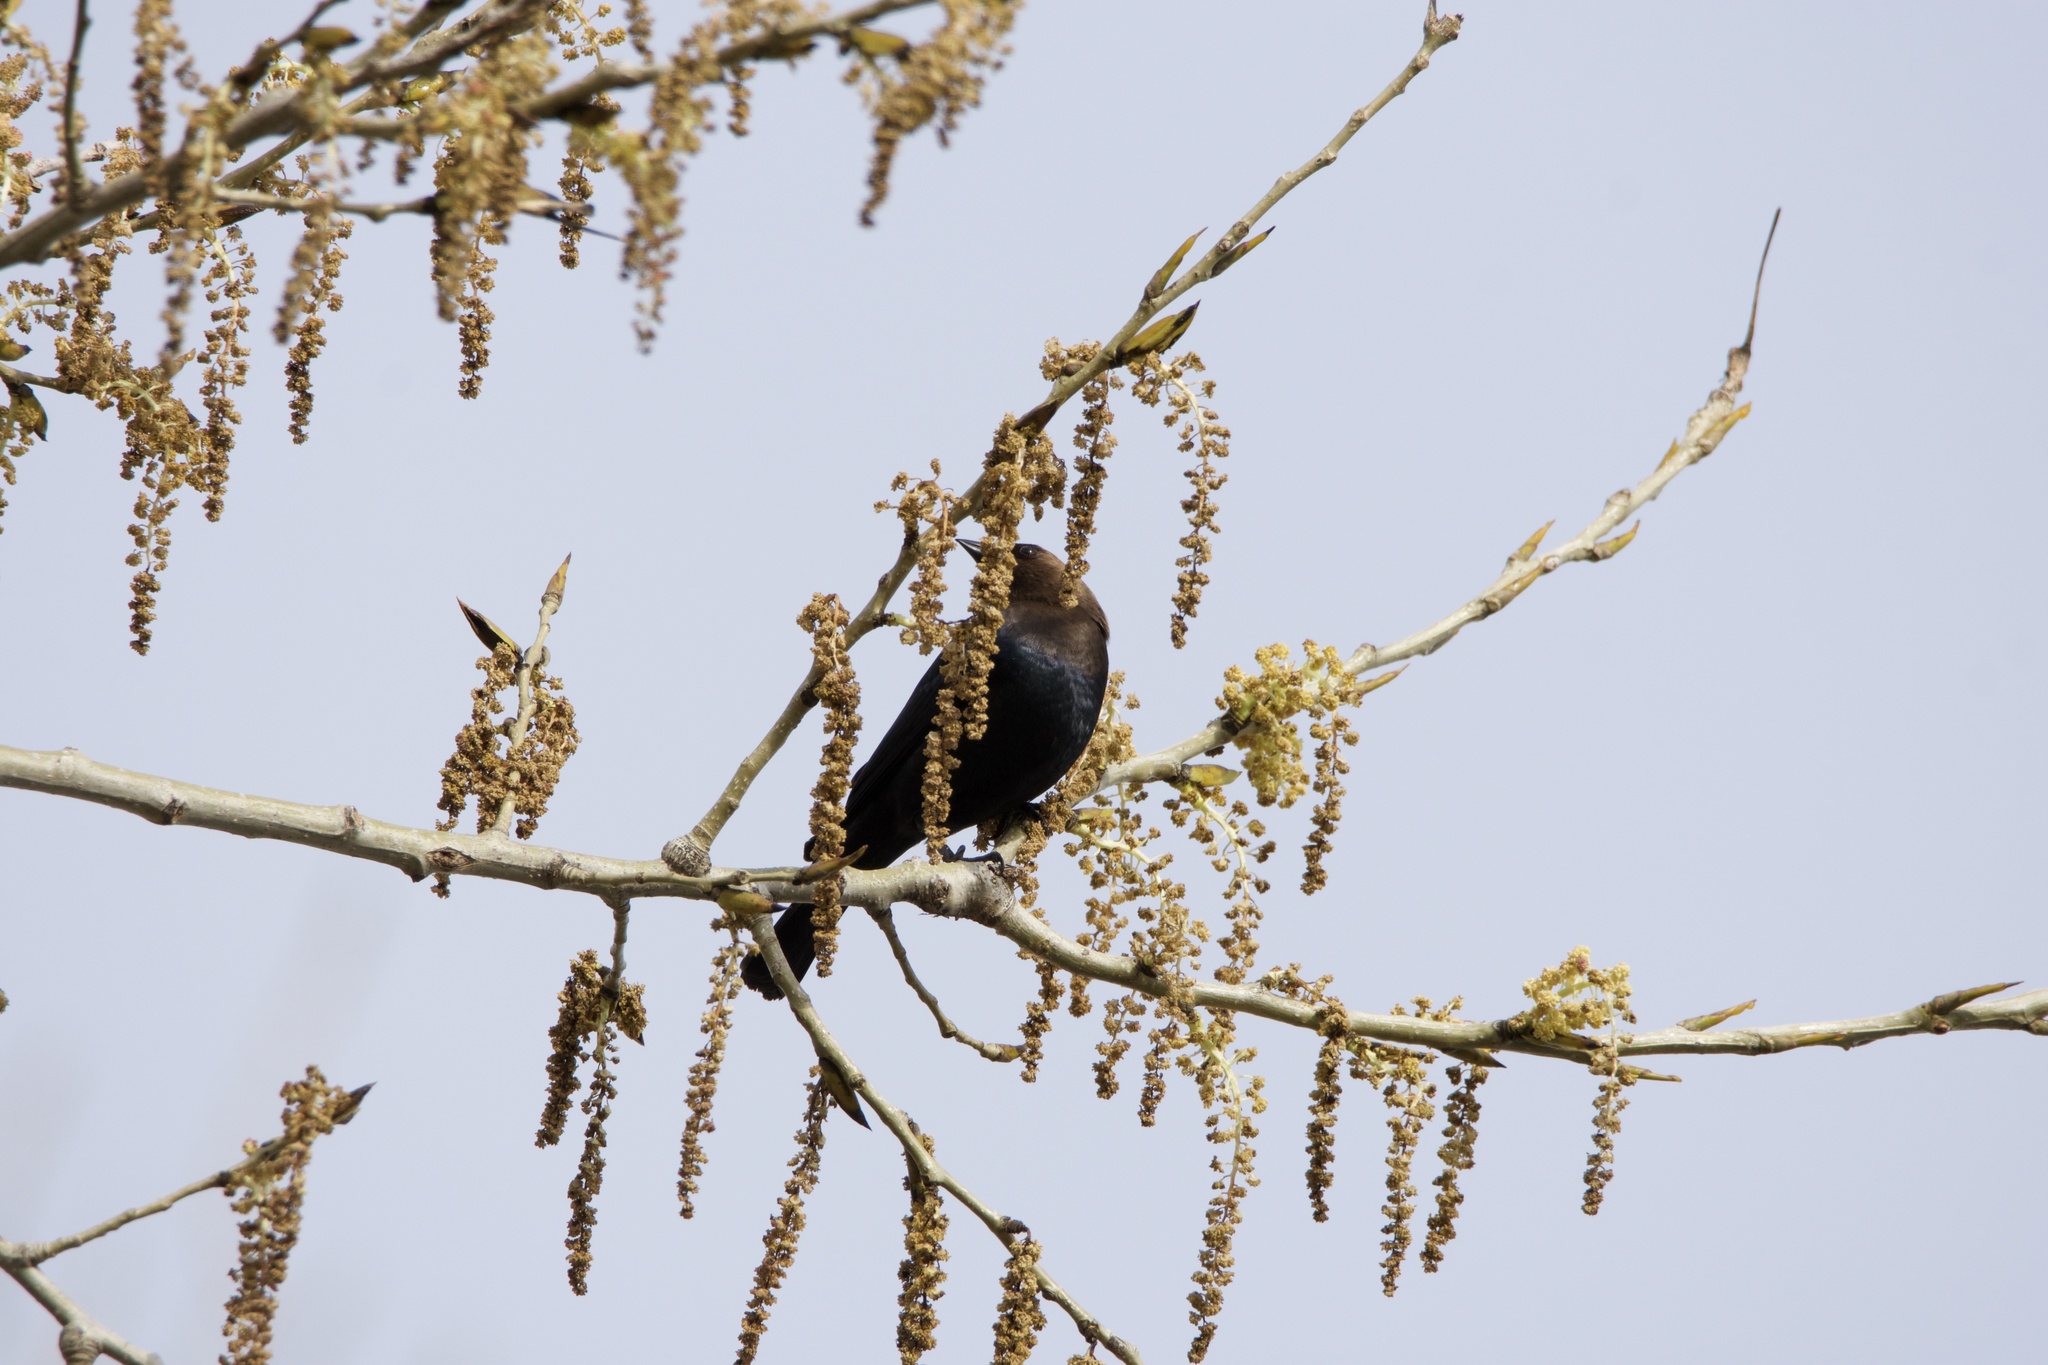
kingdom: Animalia
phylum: Chordata
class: Aves
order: Passeriformes
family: Icteridae
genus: Molothrus
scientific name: Molothrus ater
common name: Brown-headed cowbird
